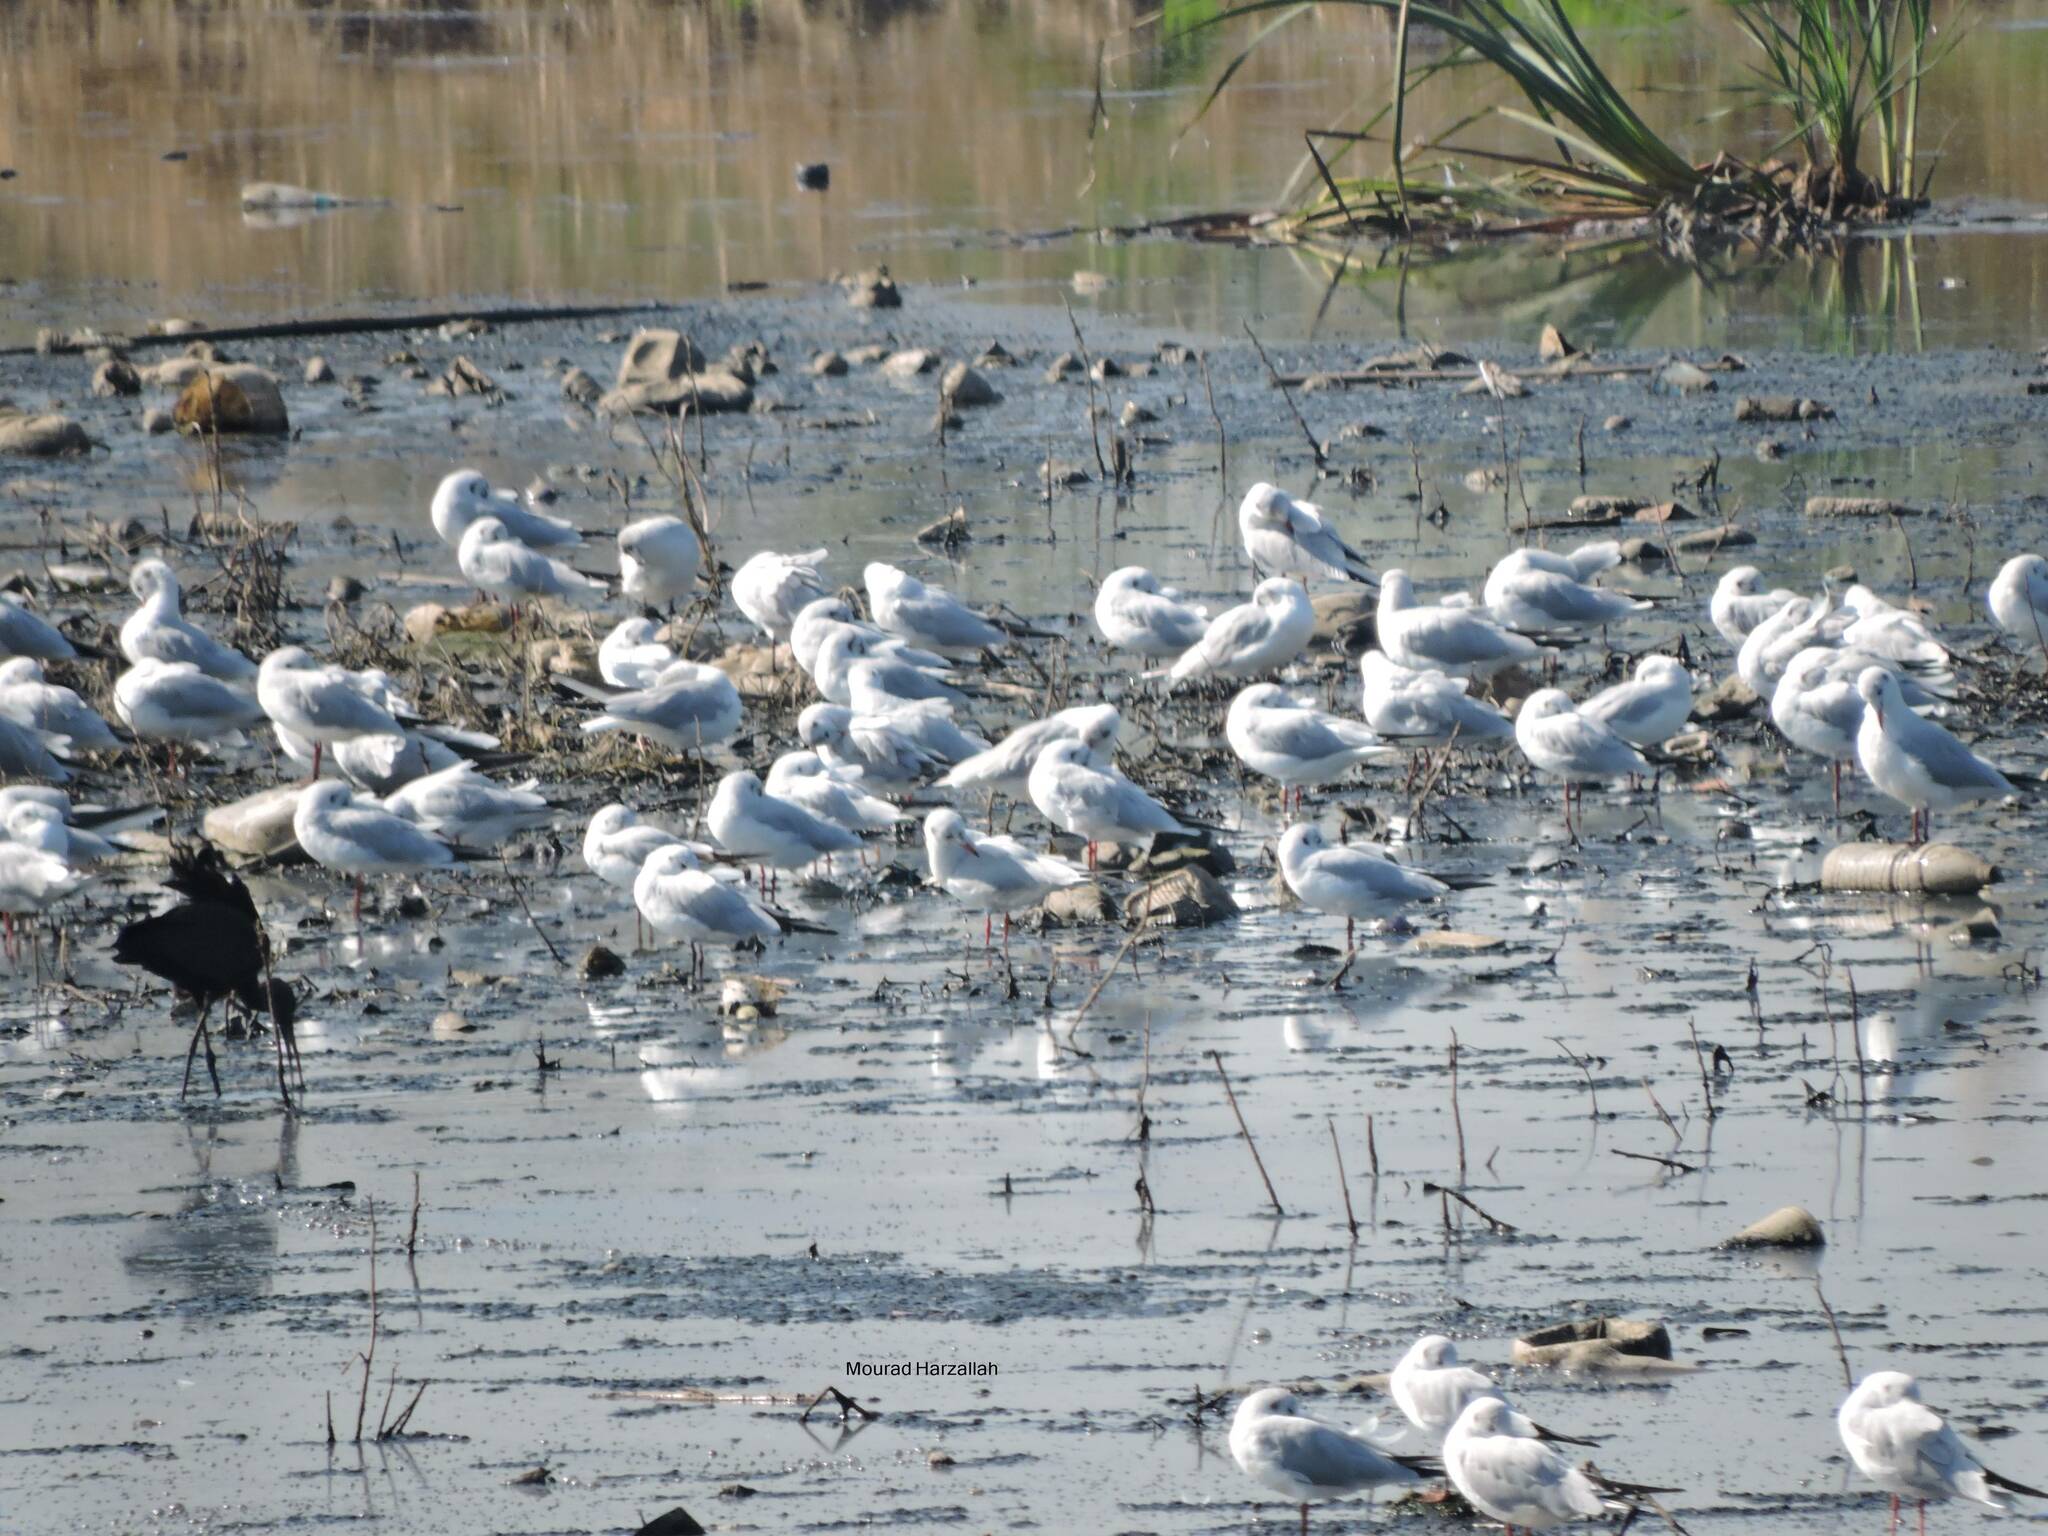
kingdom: Animalia
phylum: Chordata
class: Aves
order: Charadriiformes
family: Laridae
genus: Chroicocephalus
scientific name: Chroicocephalus ridibundus
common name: Black-headed gull
